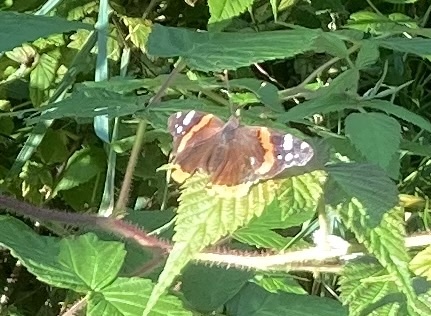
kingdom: Animalia
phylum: Arthropoda
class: Insecta
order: Lepidoptera
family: Nymphalidae
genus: Vanessa
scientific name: Vanessa atalanta
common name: Red admiral
